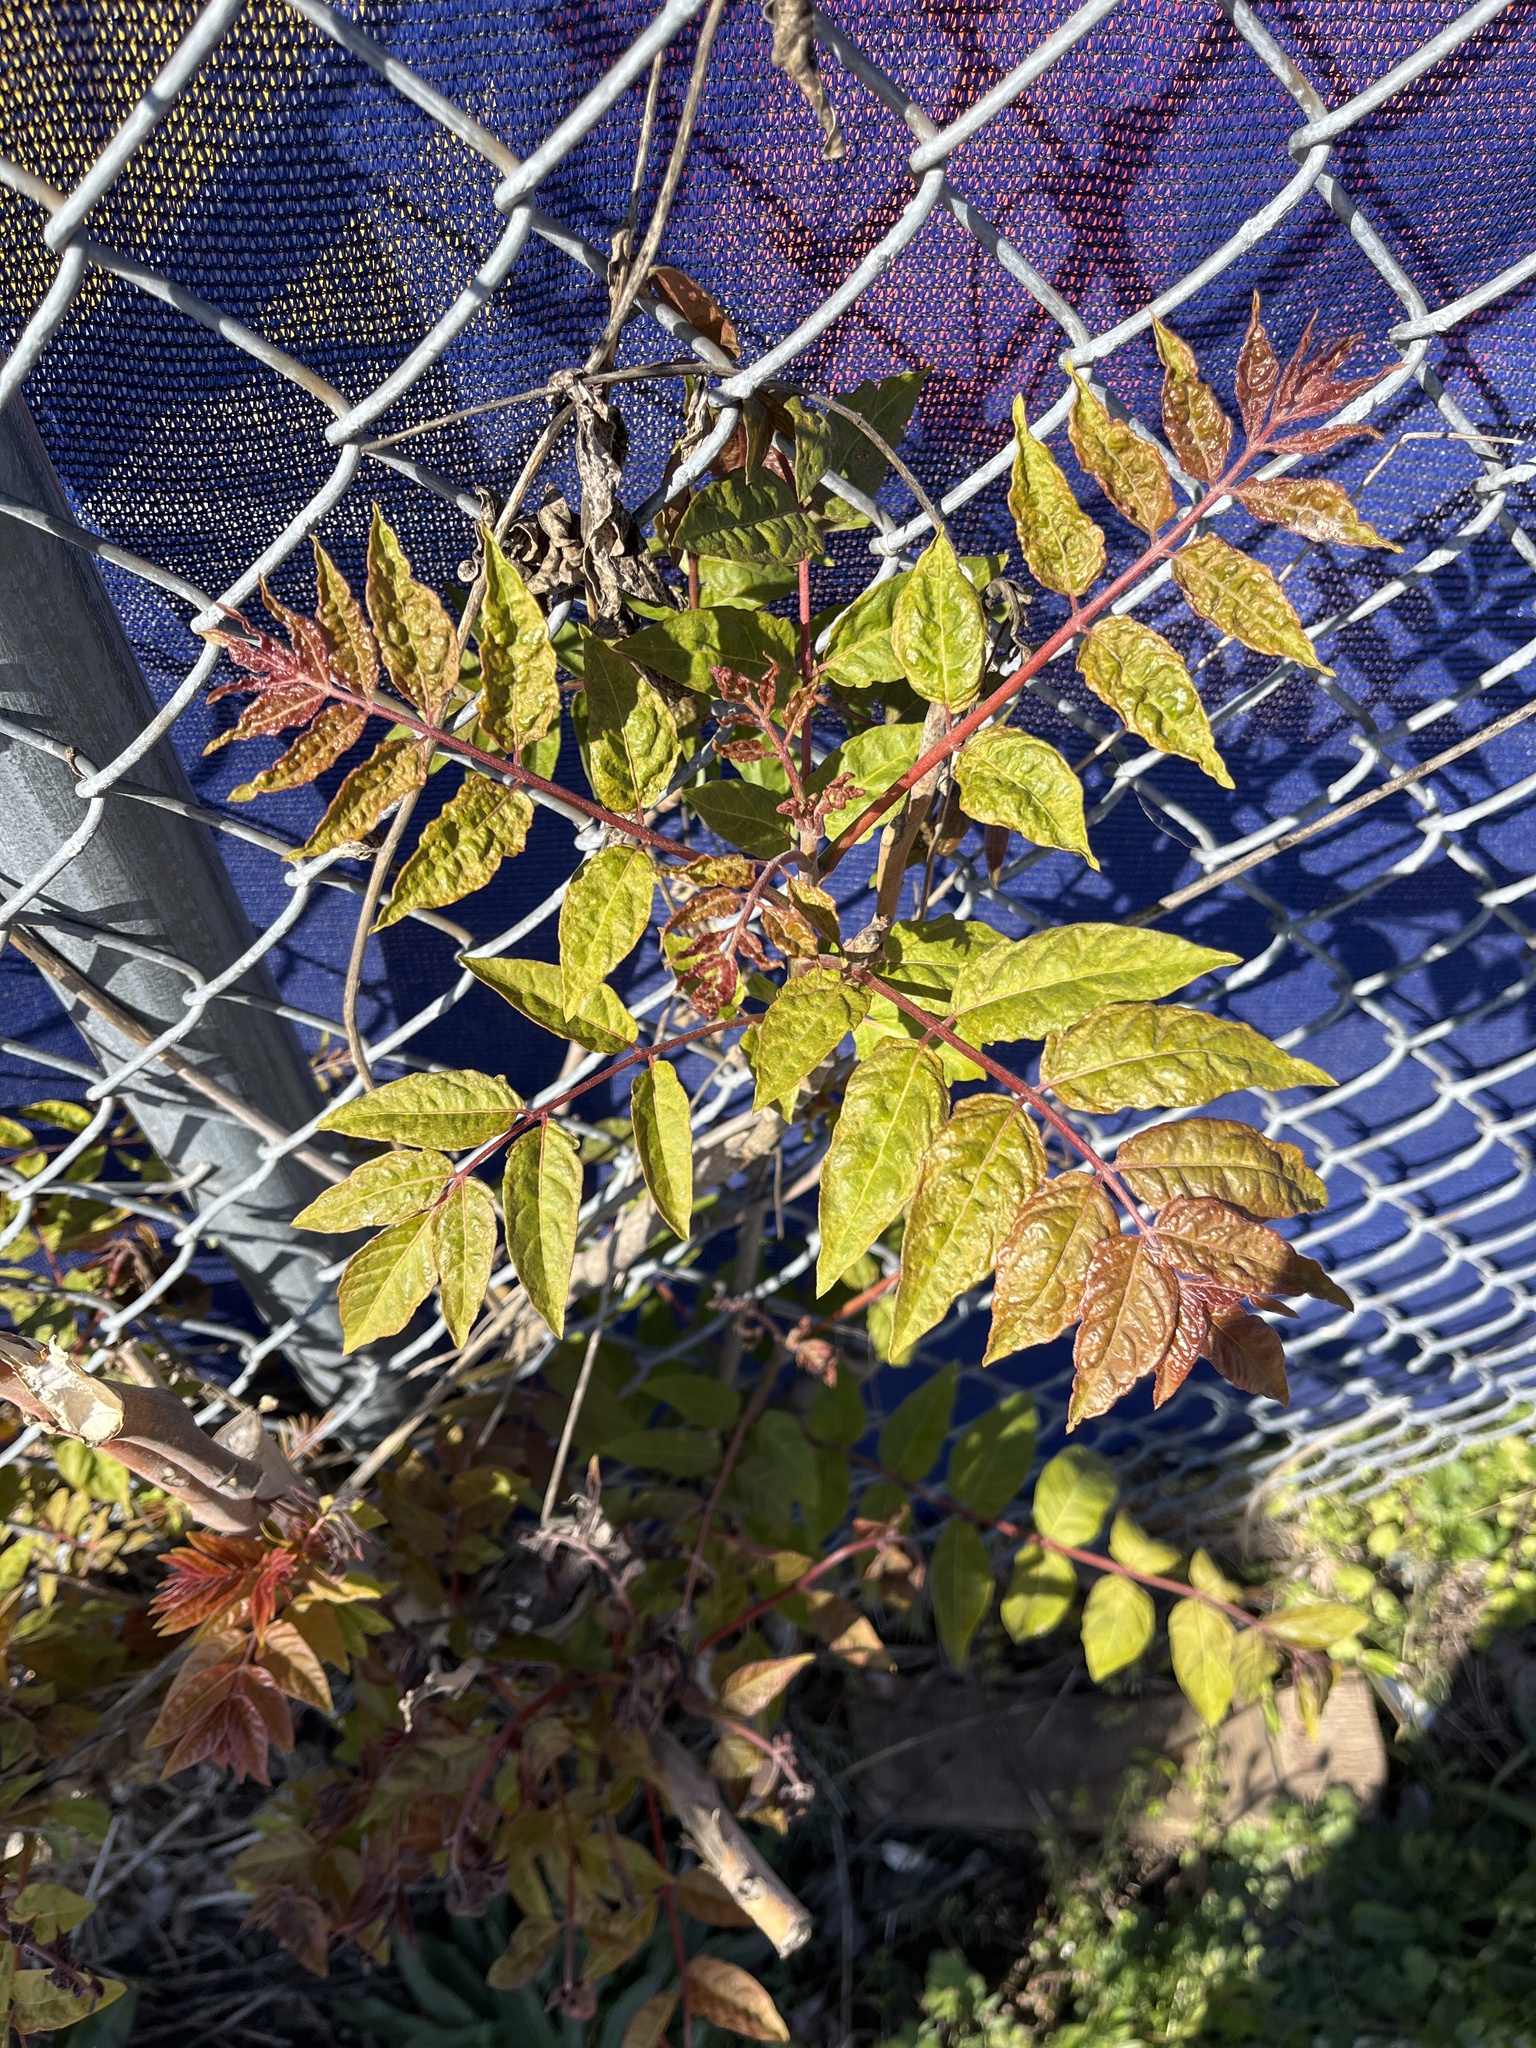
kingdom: Plantae
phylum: Tracheophyta
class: Magnoliopsida
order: Sapindales
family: Simaroubaceae
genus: Ailanthus
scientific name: Ailanthus altissima
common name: Tree-of-heaven
